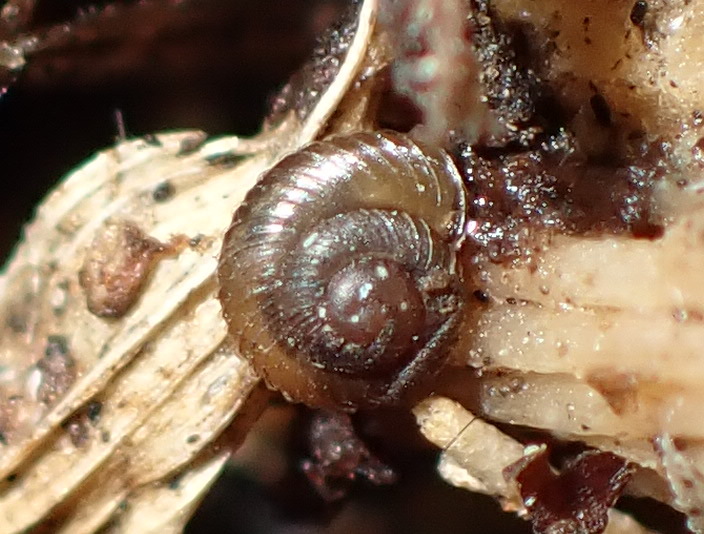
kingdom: Animalia
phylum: Mollusca
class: Gastropoda
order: Stylommatophora
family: Punctidae
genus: Paralaoma
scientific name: Paralaoma servilis
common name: Pinhead spot
